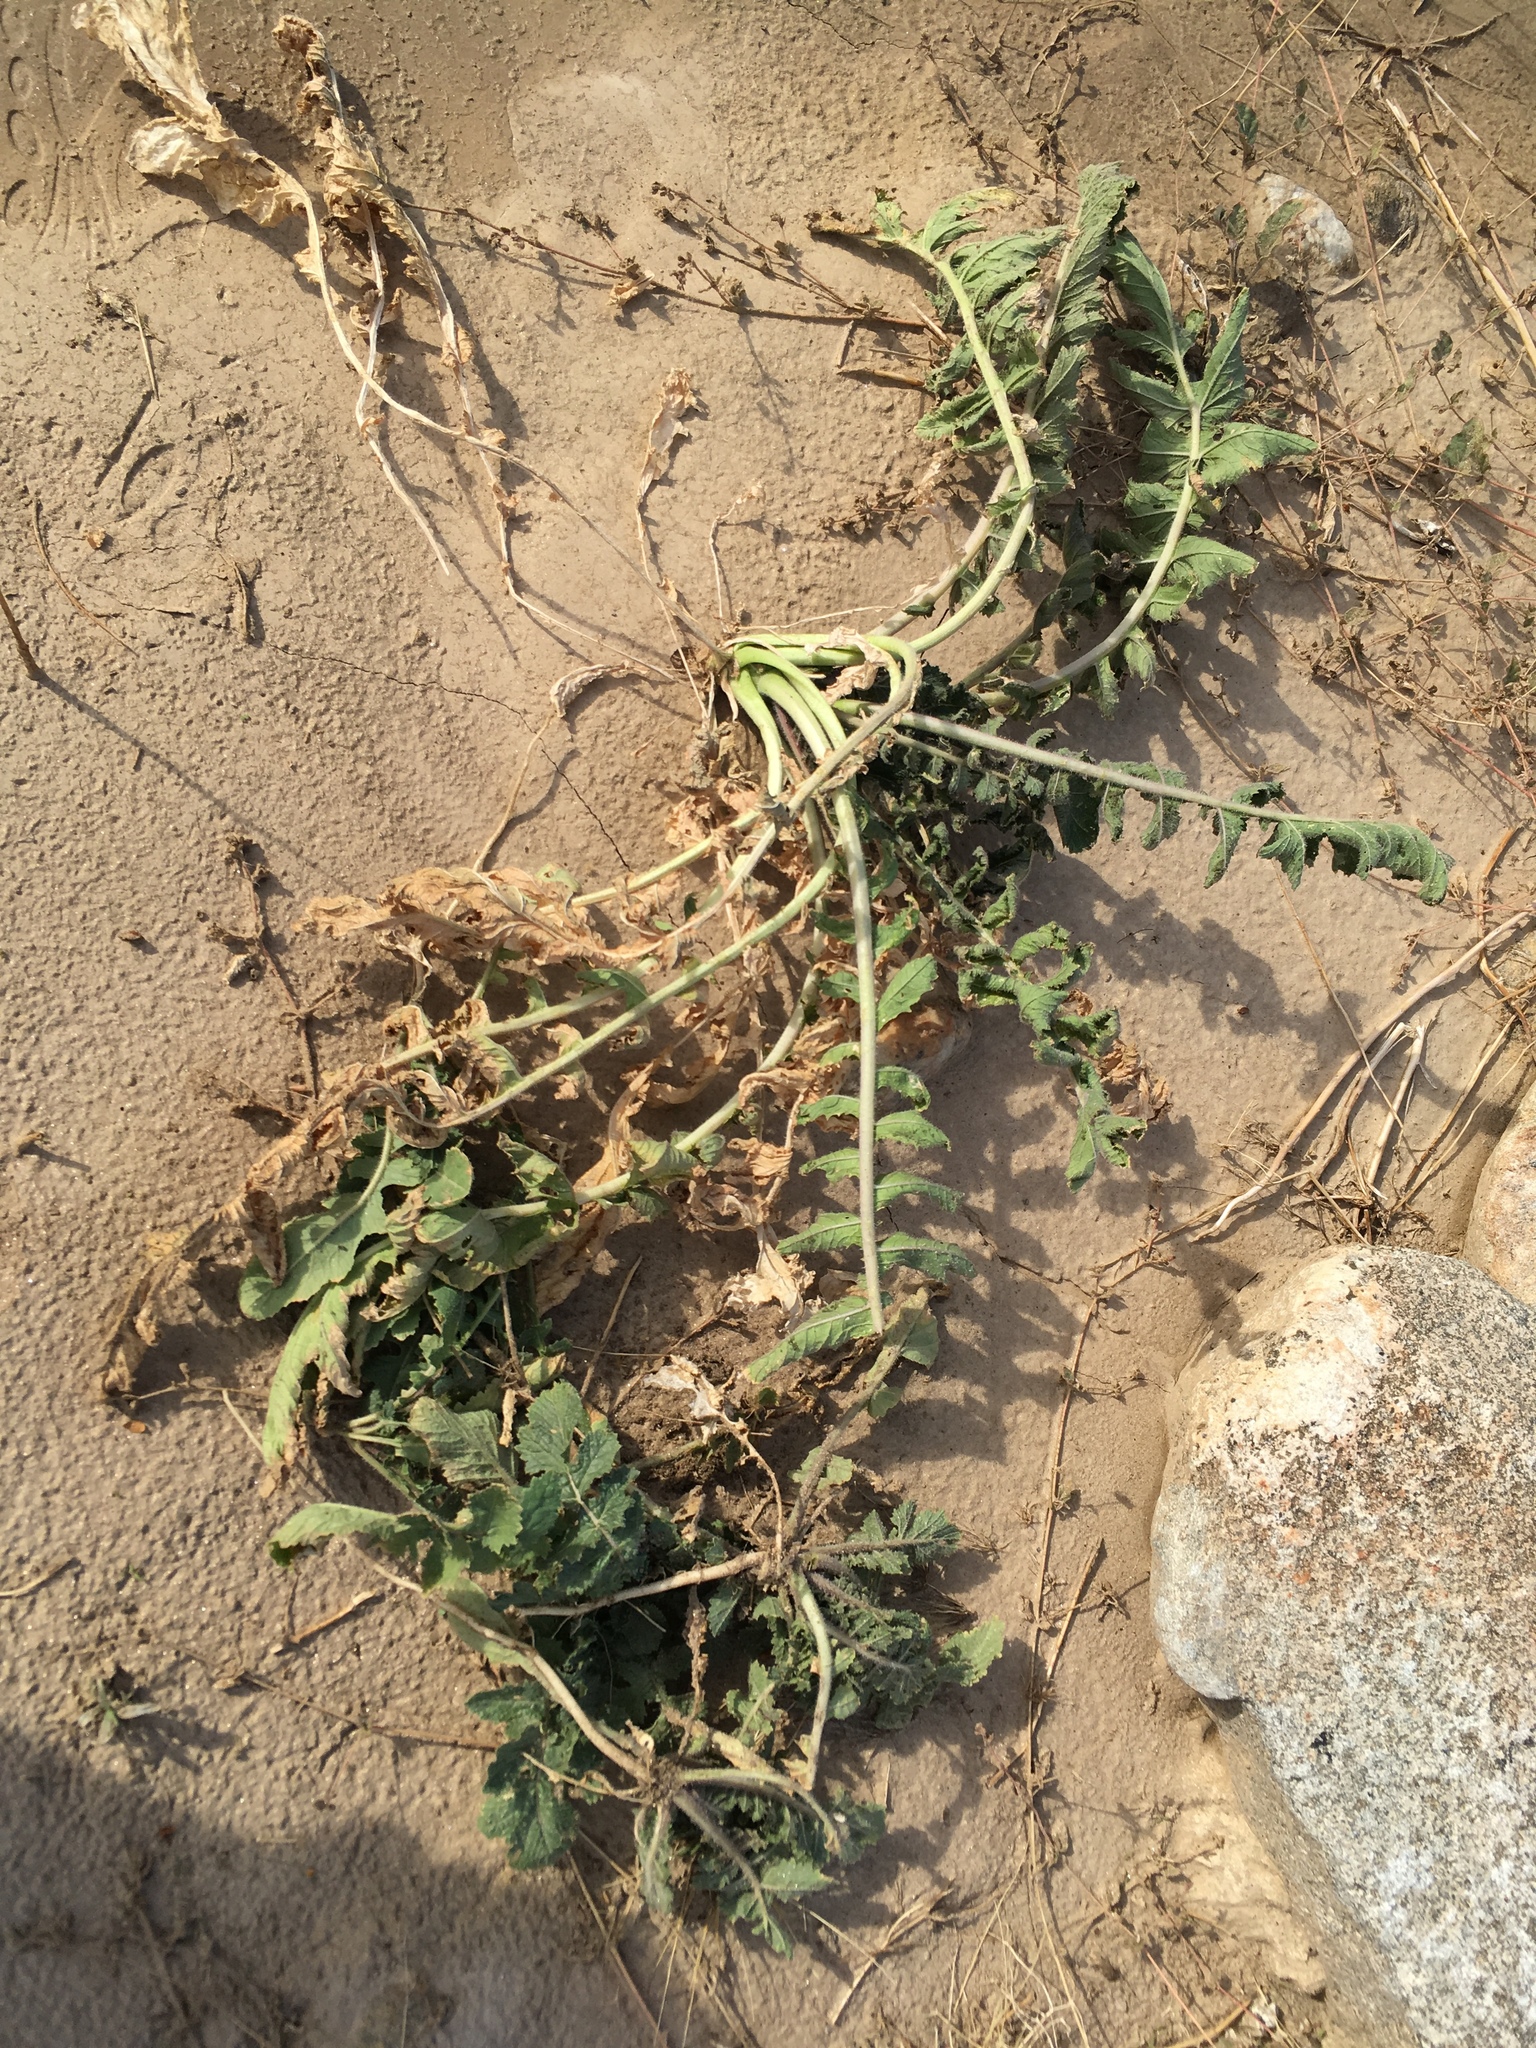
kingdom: Plantae
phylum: Tracheophyta
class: Magnoliopsida
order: Brassicales
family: Brassicaceae
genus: Brassica
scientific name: Brassica tournefortii
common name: Pale cabbage
